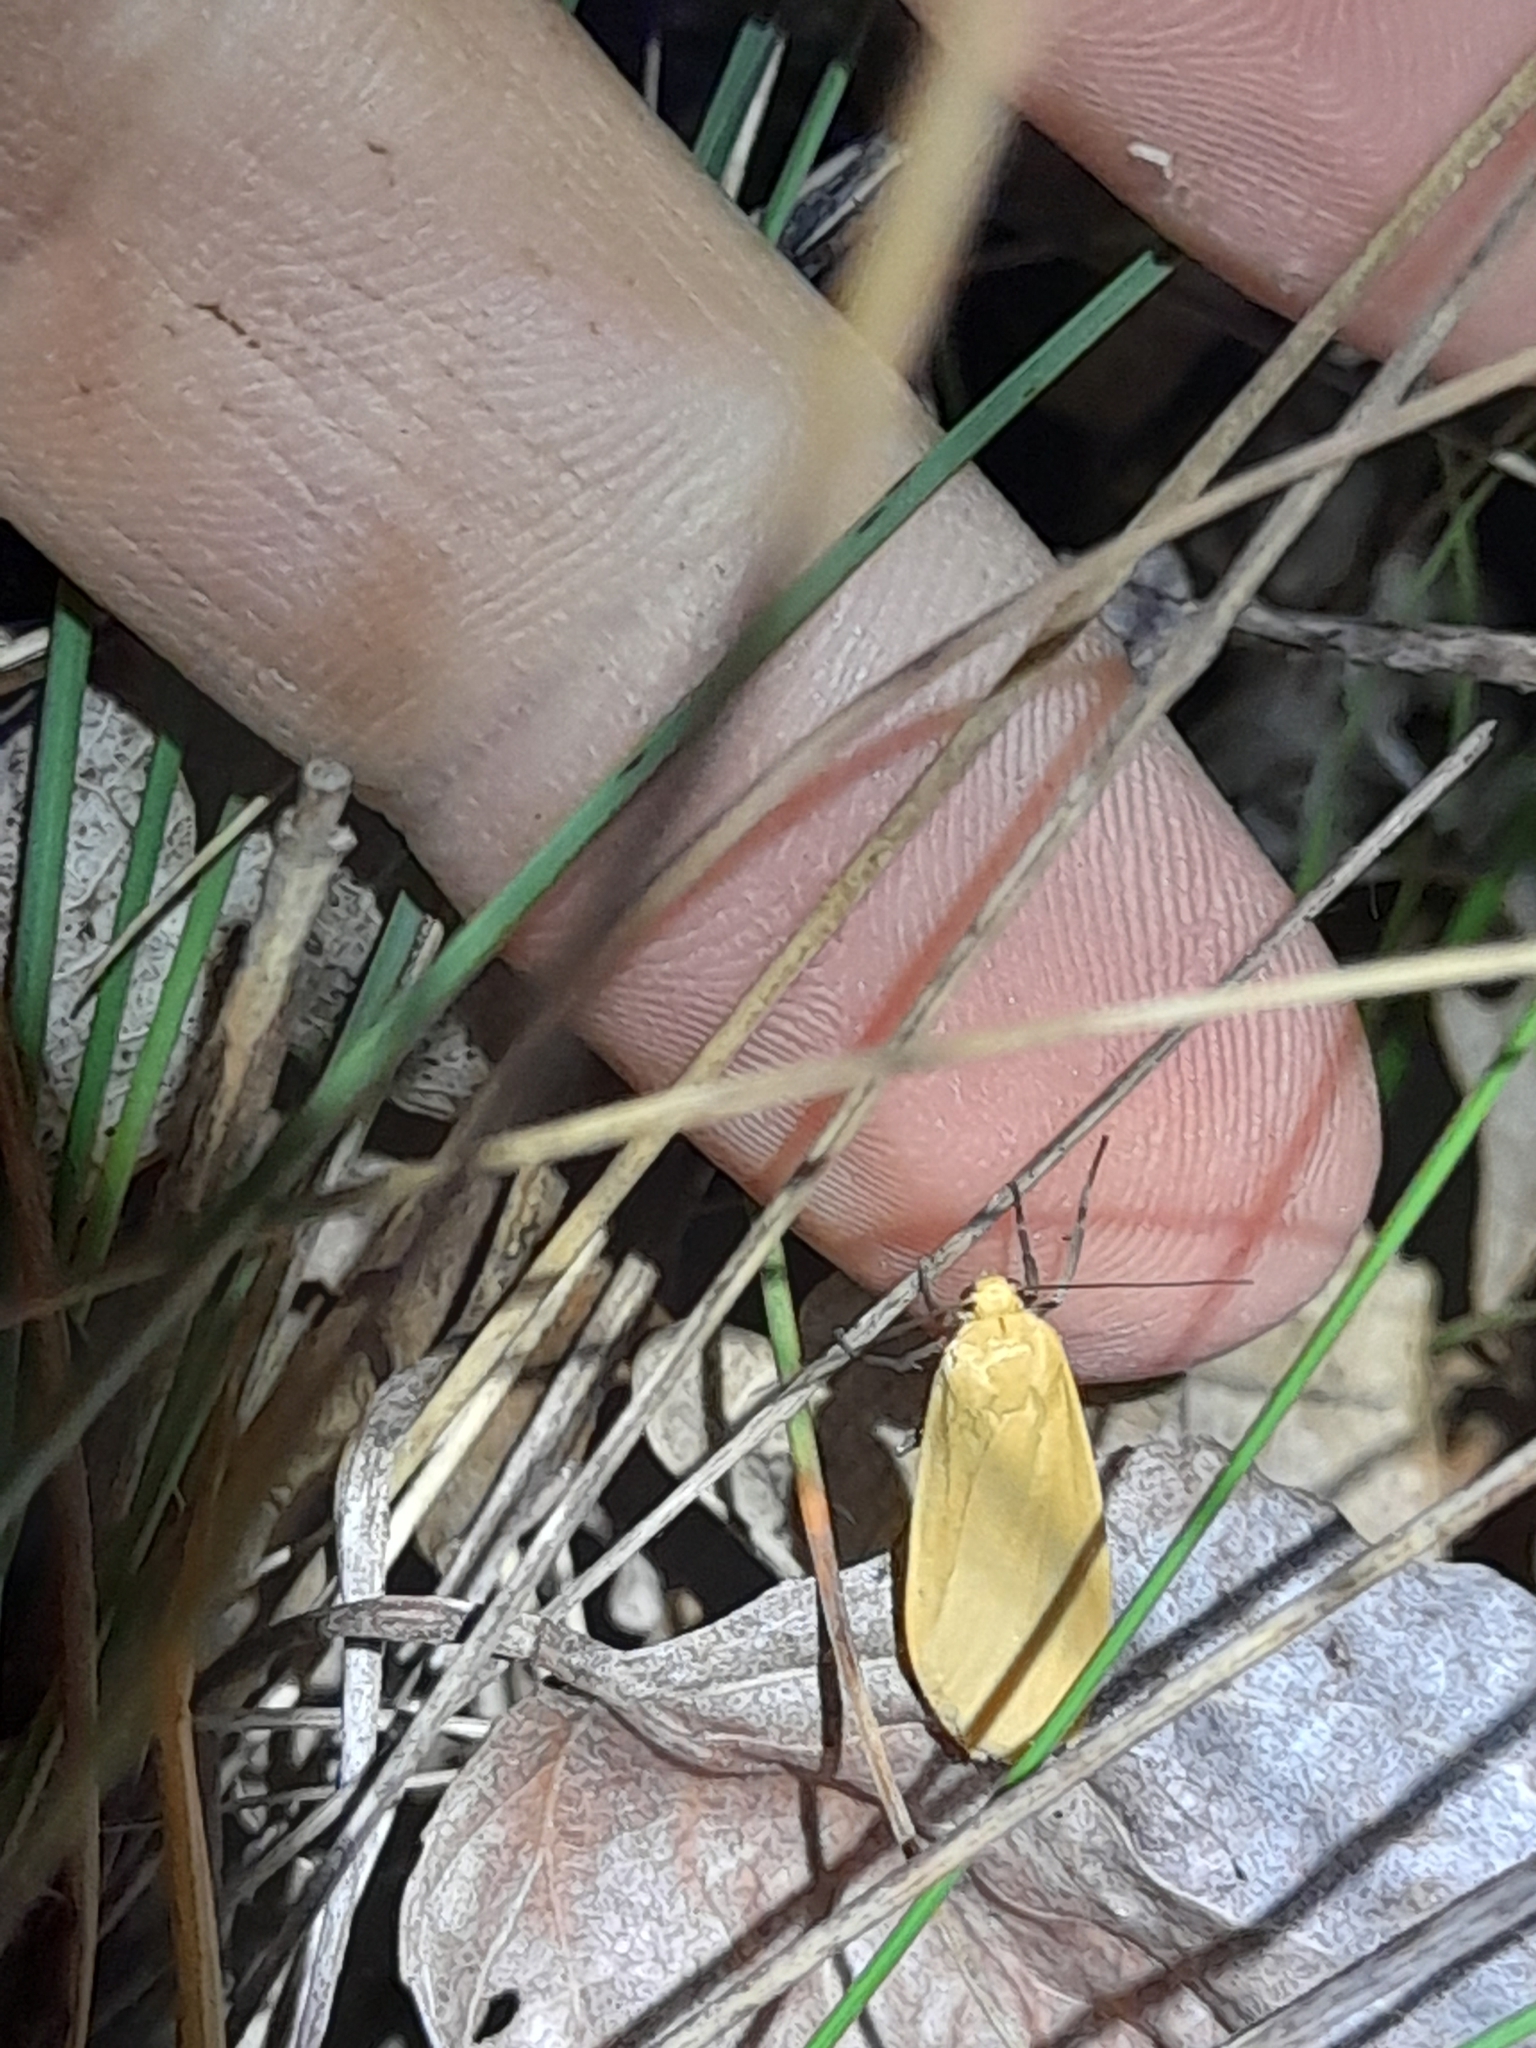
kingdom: Animalia
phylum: Arthropoda
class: Insecta
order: Lepidoptera
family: Erebidae
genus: Wittia
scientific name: Wittia sororcula
